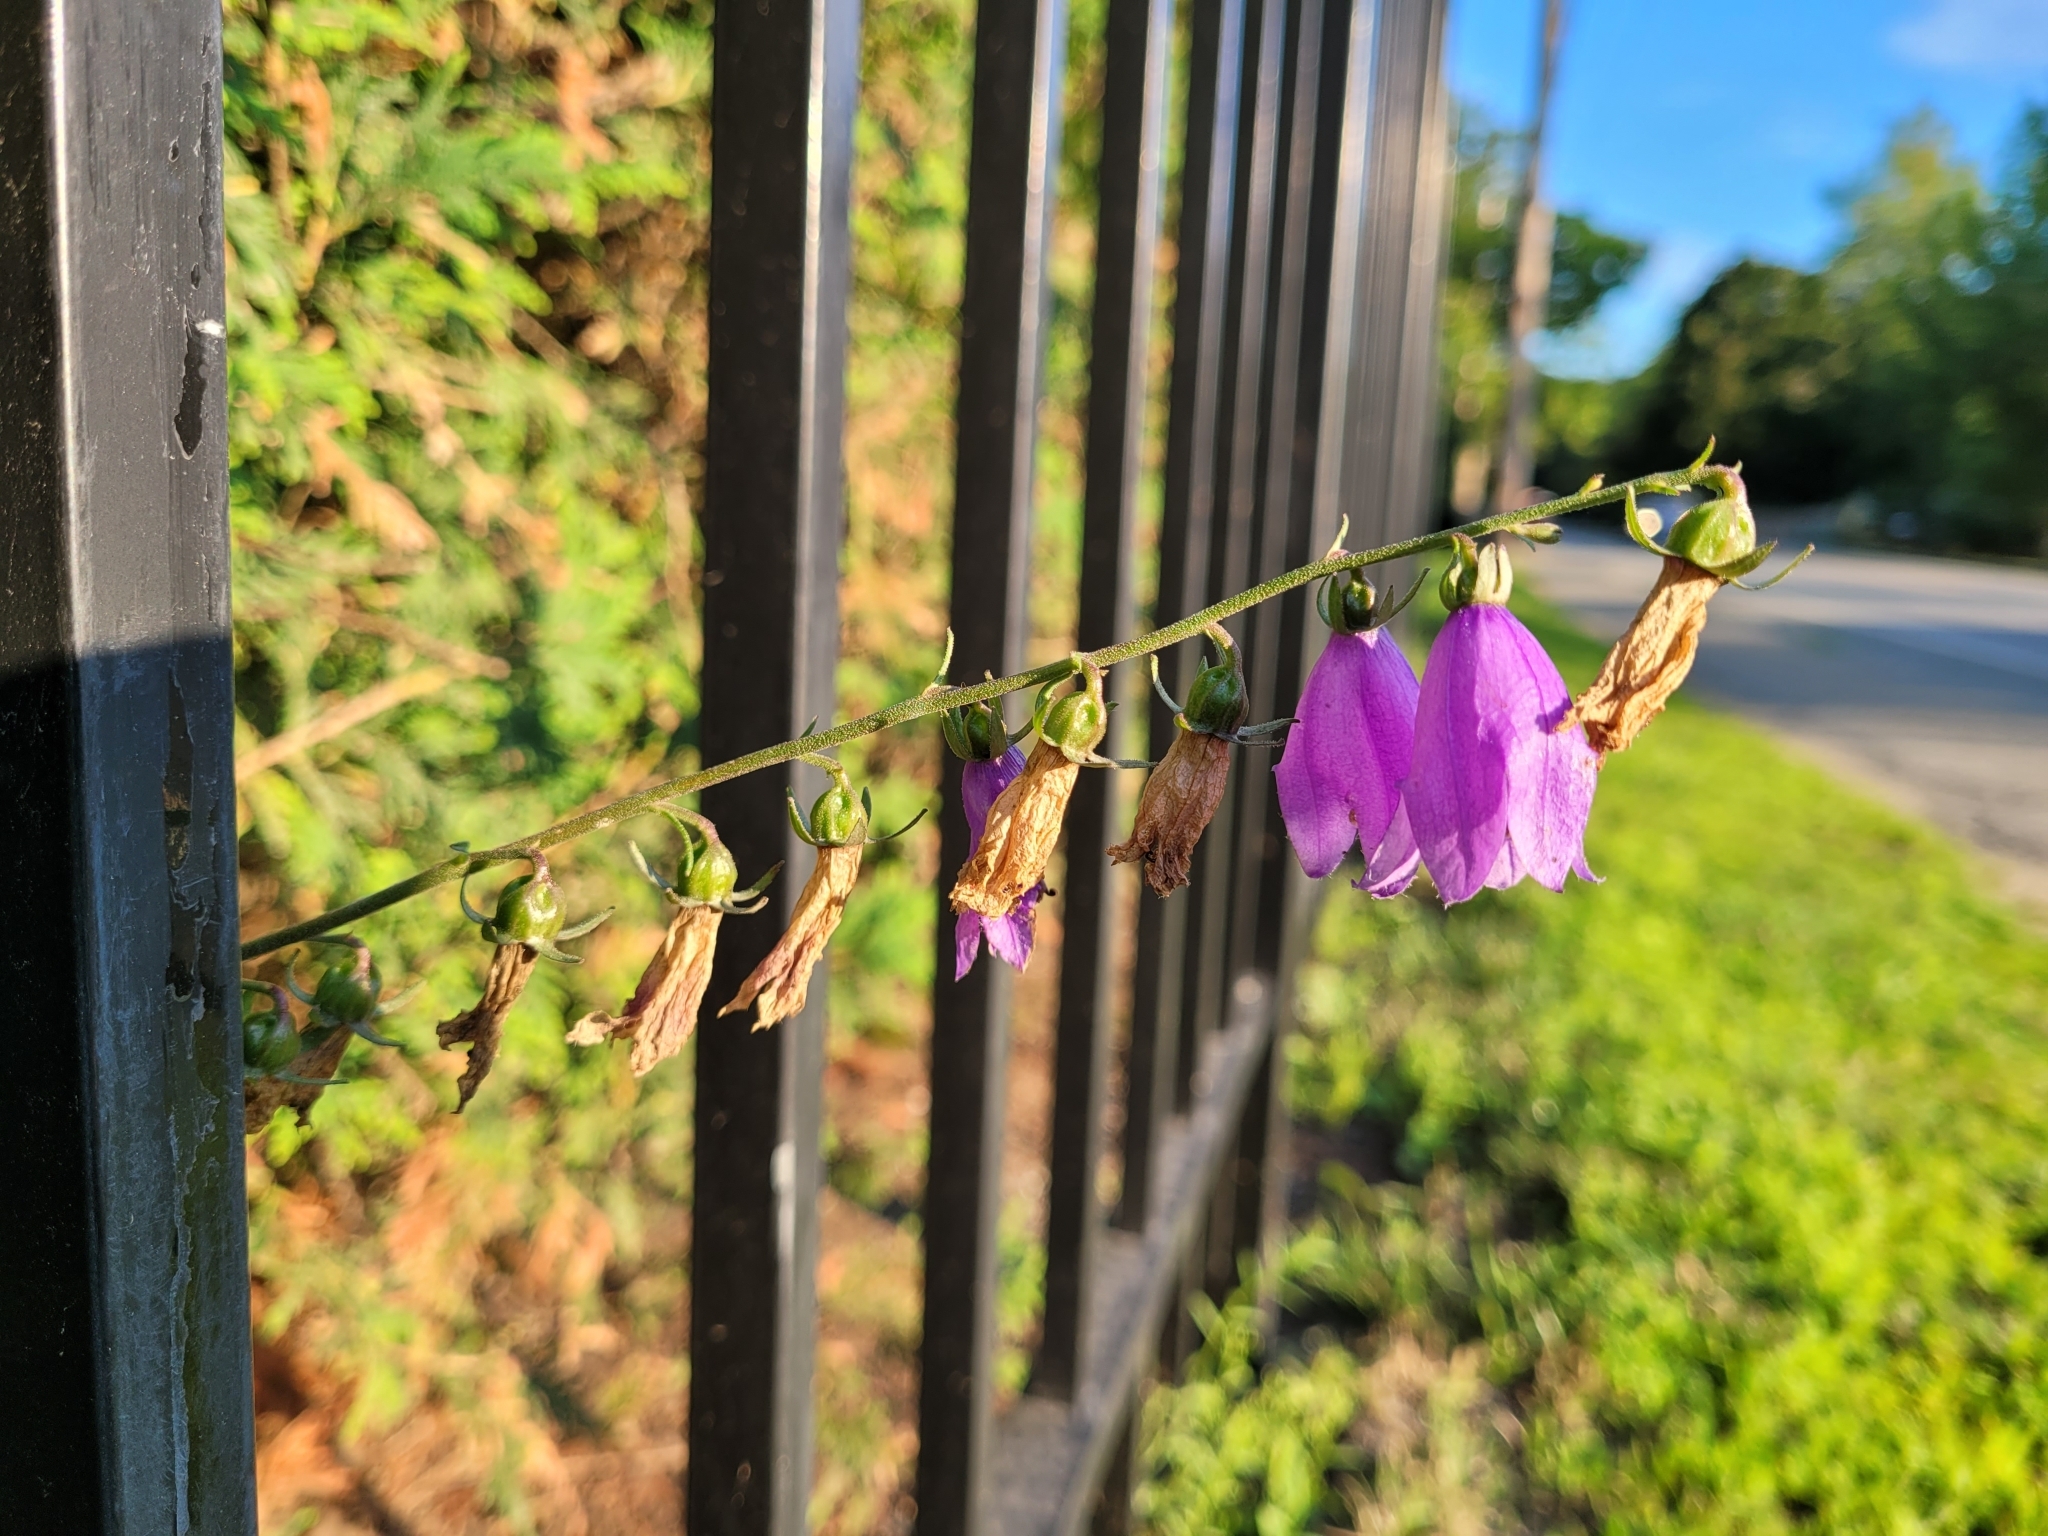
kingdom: Plantae
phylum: Tracheophyta
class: Magnoliopsida
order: Asterales
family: Campanulaceae
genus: Campanula
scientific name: Campanula rapunculoides
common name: Creeping bellflower
